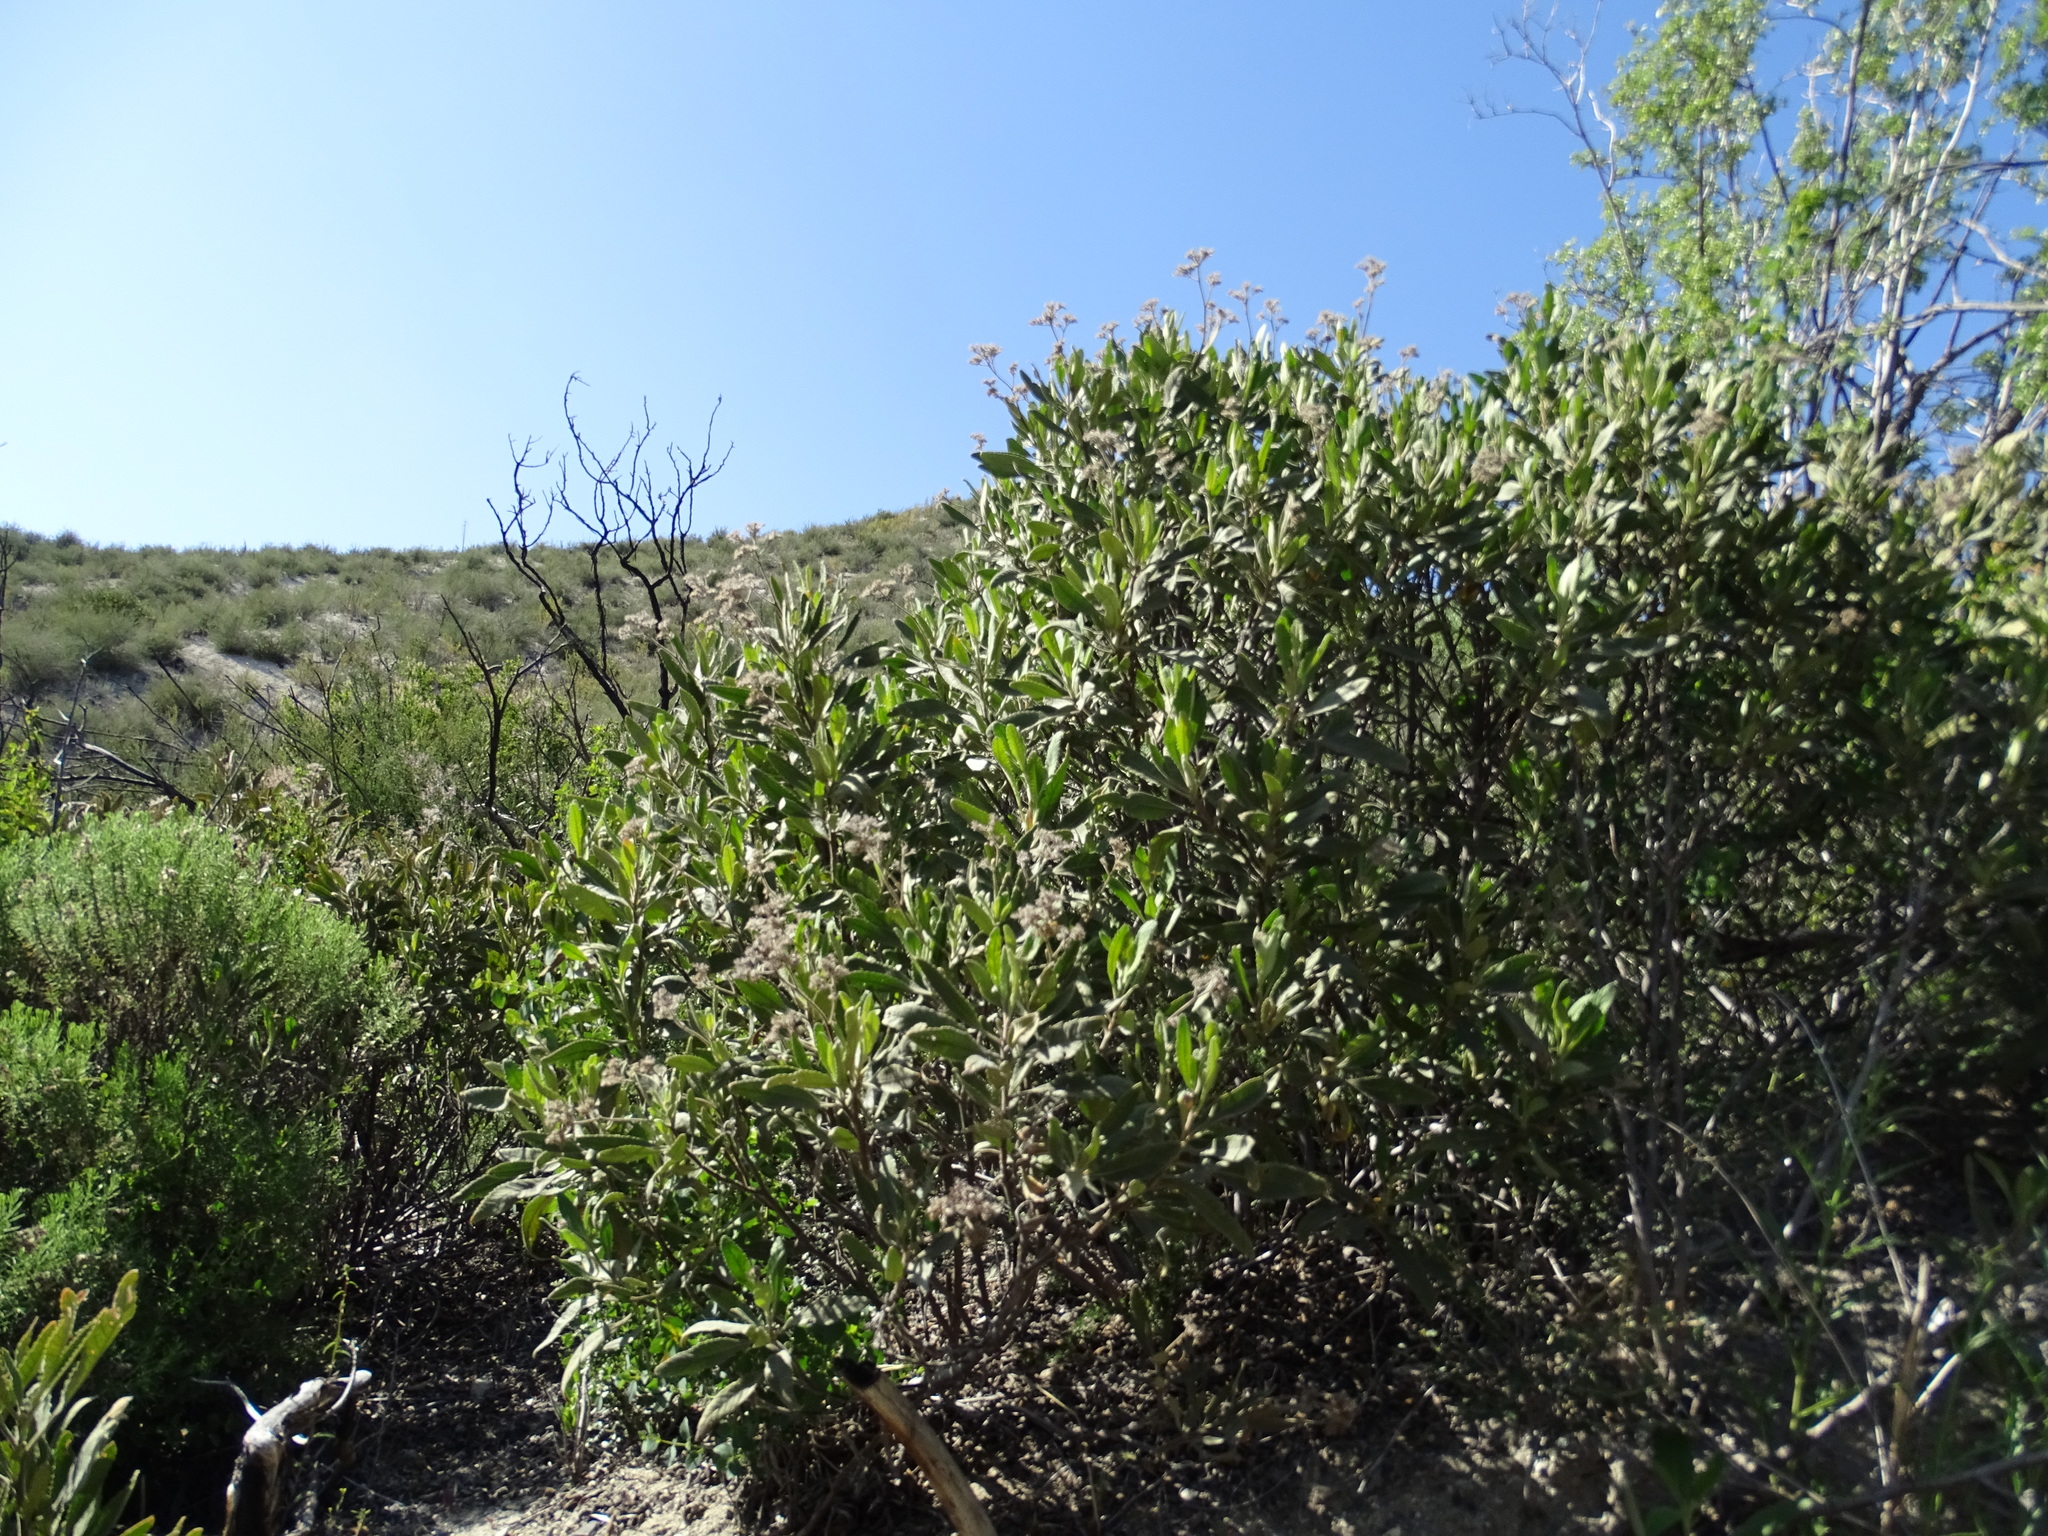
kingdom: Plantae
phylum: Tracheophyta
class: Magnoliopsida
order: Rosales
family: Rosaceae
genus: Heteromeles
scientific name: Heteromeles arbutifolia
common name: California-holly
